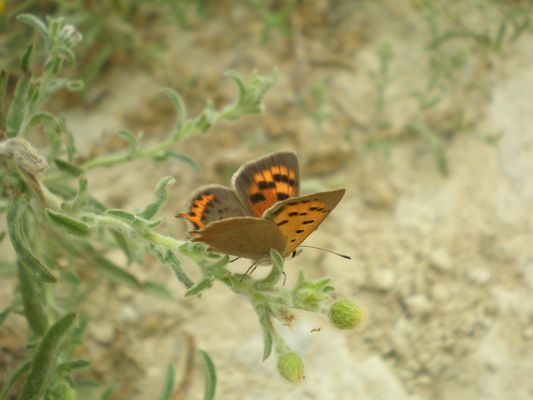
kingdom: Animalia
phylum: Arthropoda
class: Insecta
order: Lepidoptera
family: Lycaenidae
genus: Lycaena
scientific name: Lycaena phlaeas
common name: Small copper
